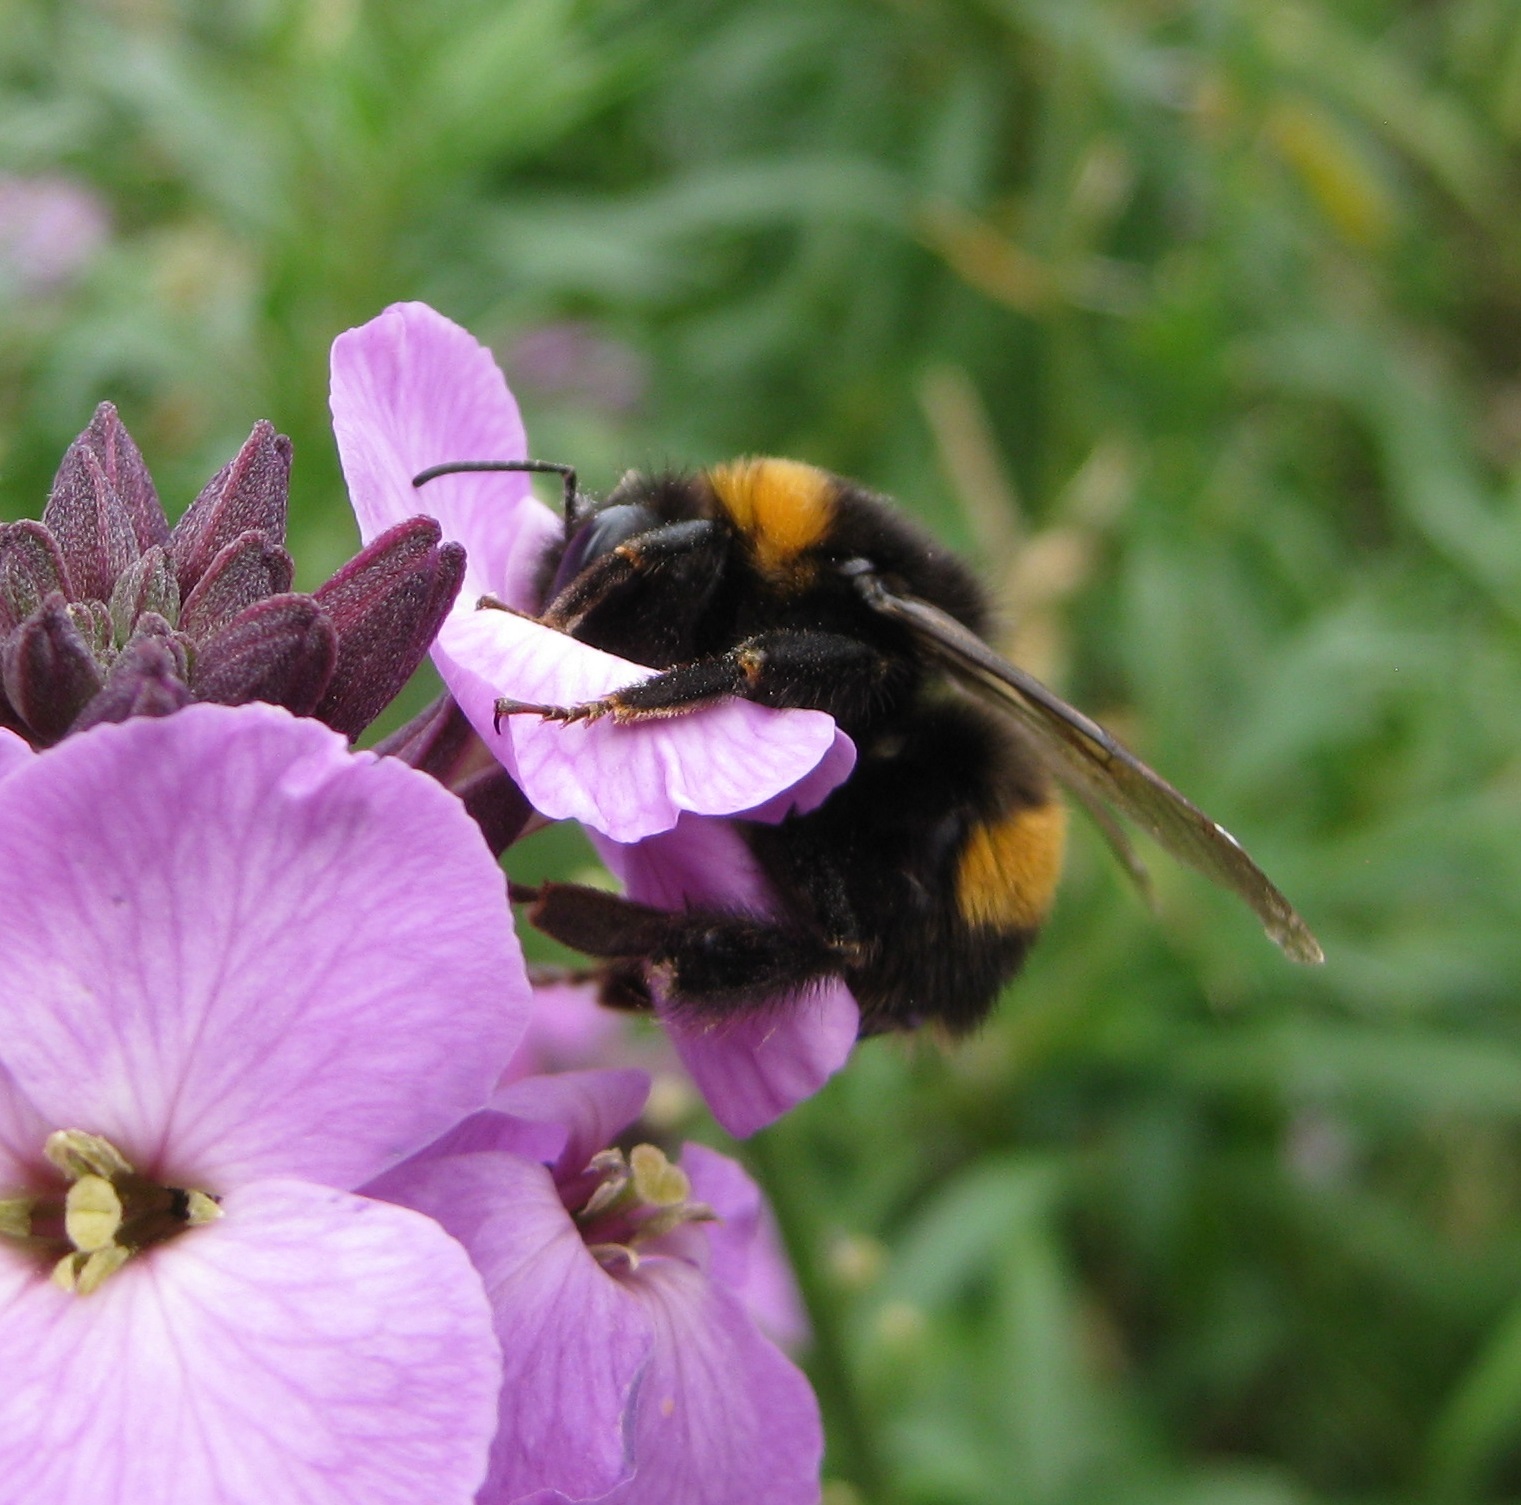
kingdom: Animalia
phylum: Arthropoda
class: Insecta
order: Hymenoptera
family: Apidae
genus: Bombus
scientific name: Bombus terrestris
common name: Buff-tailed bumblebee
